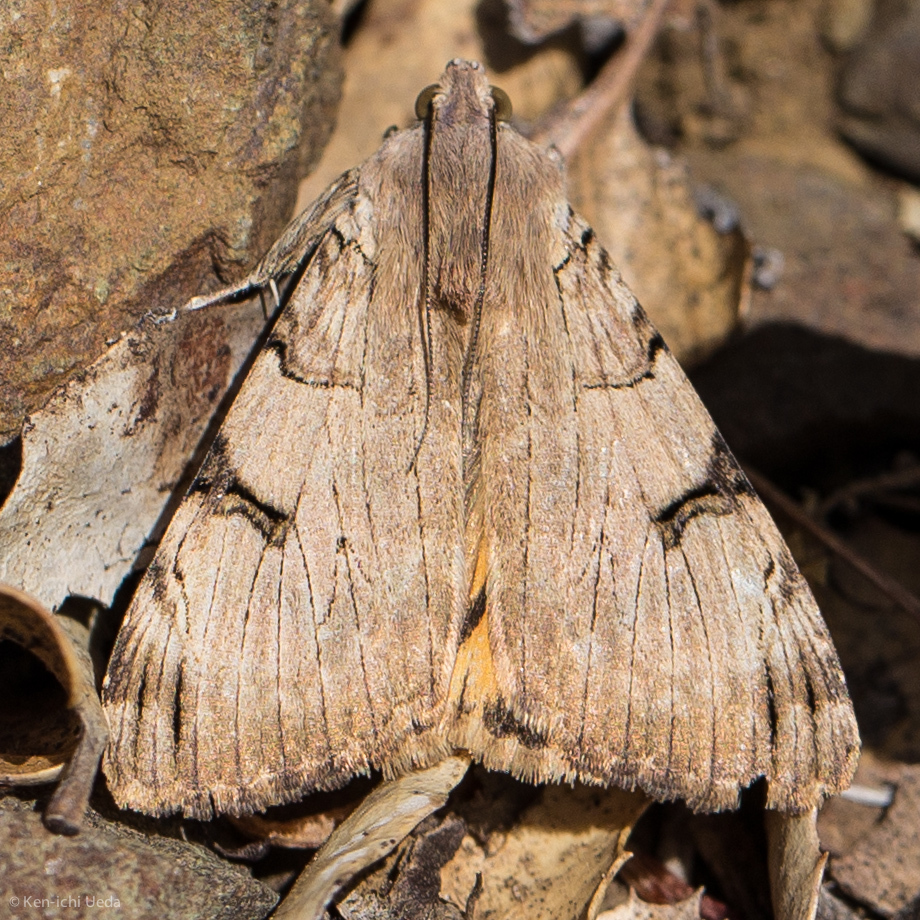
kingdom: Animalia
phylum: Arthropoda
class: Insecta
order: Lepidoptera
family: Erebidae
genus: Drasteria
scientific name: Drasteria ochracea
